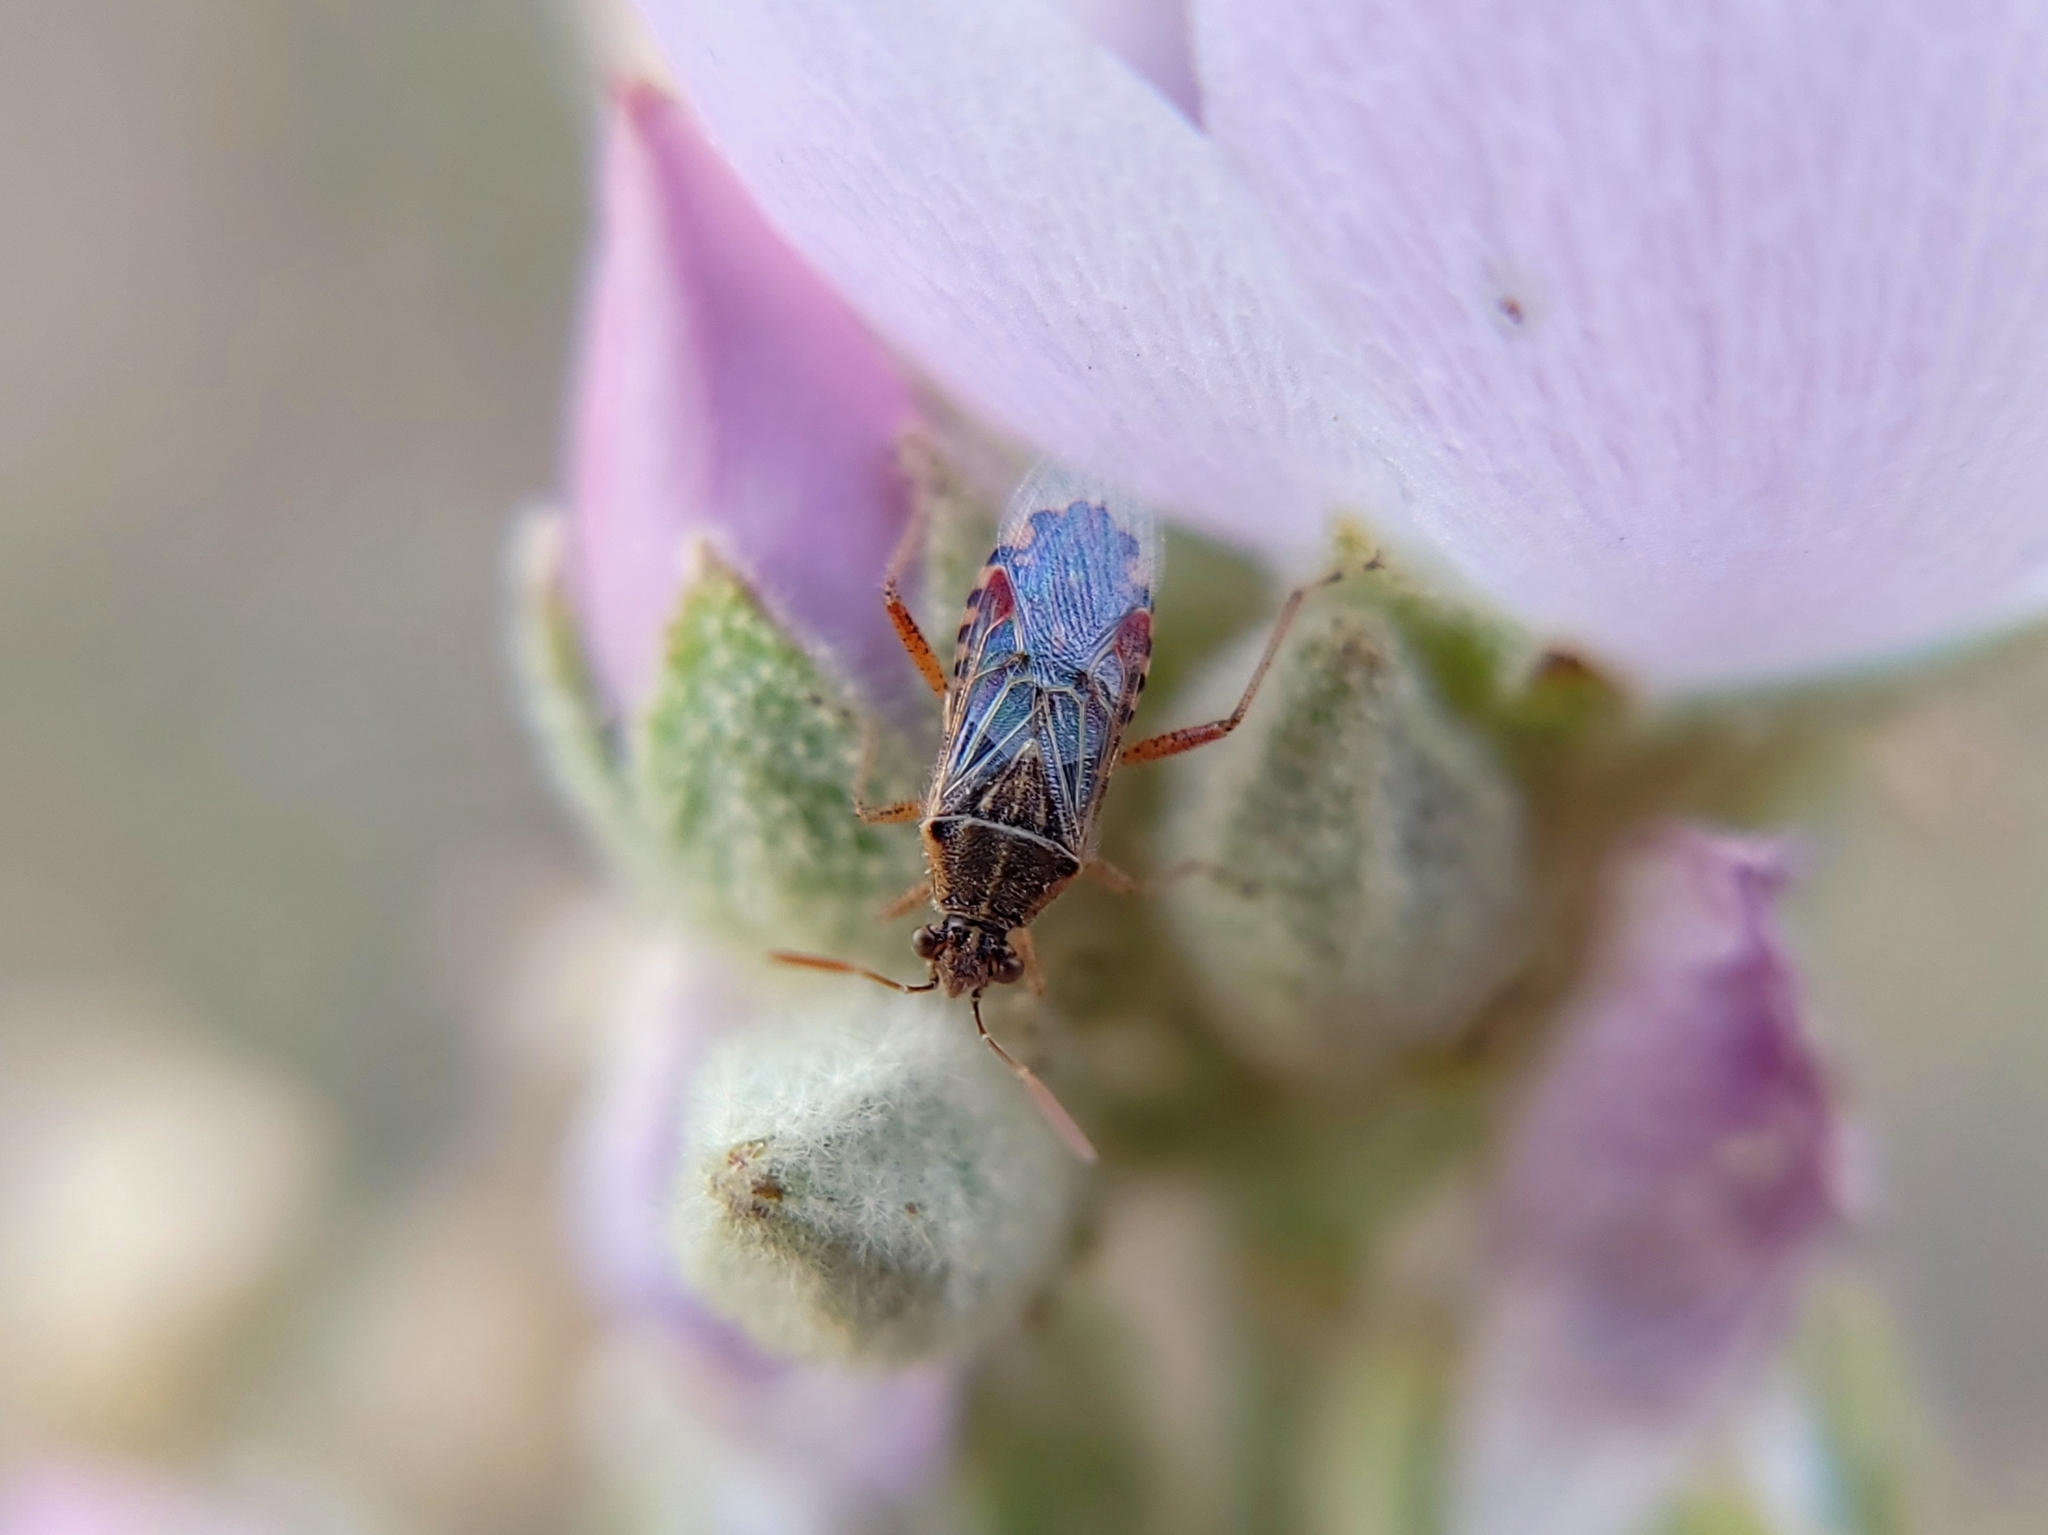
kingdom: Animalia
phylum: Arthropoda
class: Insecta
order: Hemiptera
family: Rhopalidae
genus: Liorhyssus
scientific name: Liorhyssus hyalinus
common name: Scentless plant bug
